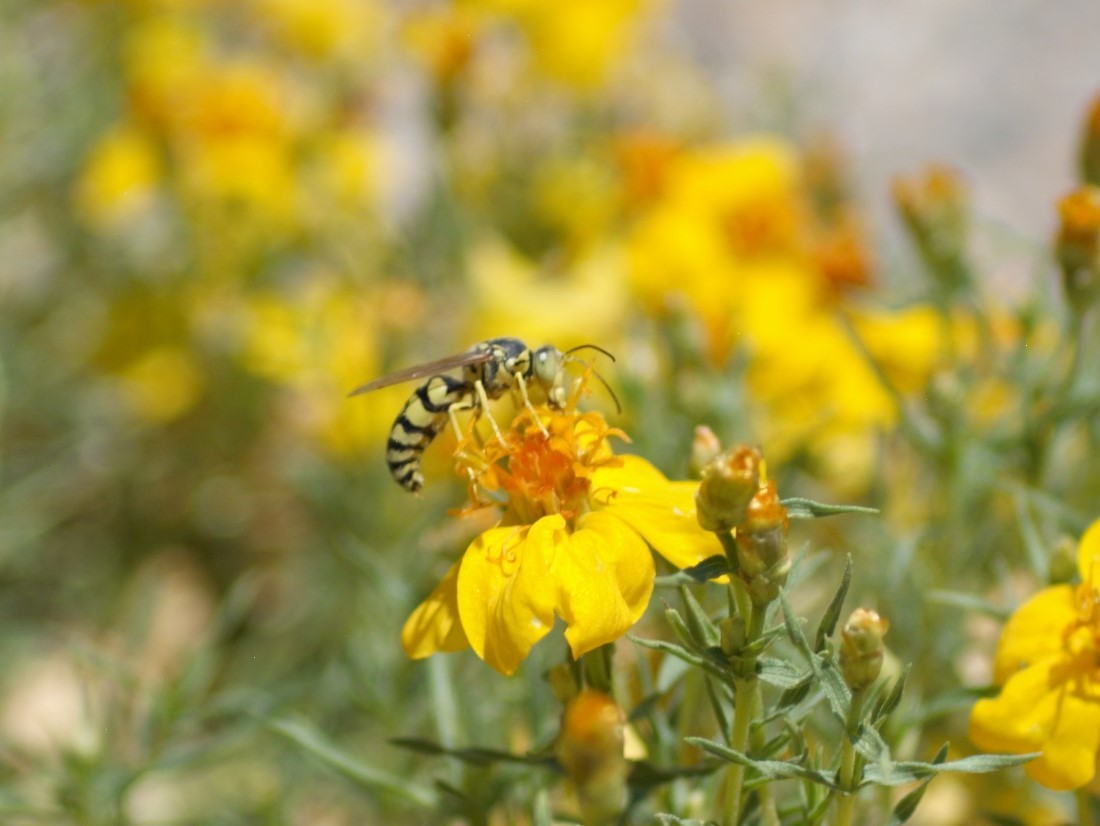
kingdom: Animalia
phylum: Arthropoda
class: Insecta
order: Hymenoptera
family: Crabronidae
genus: Steniolia
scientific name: Steniolia
